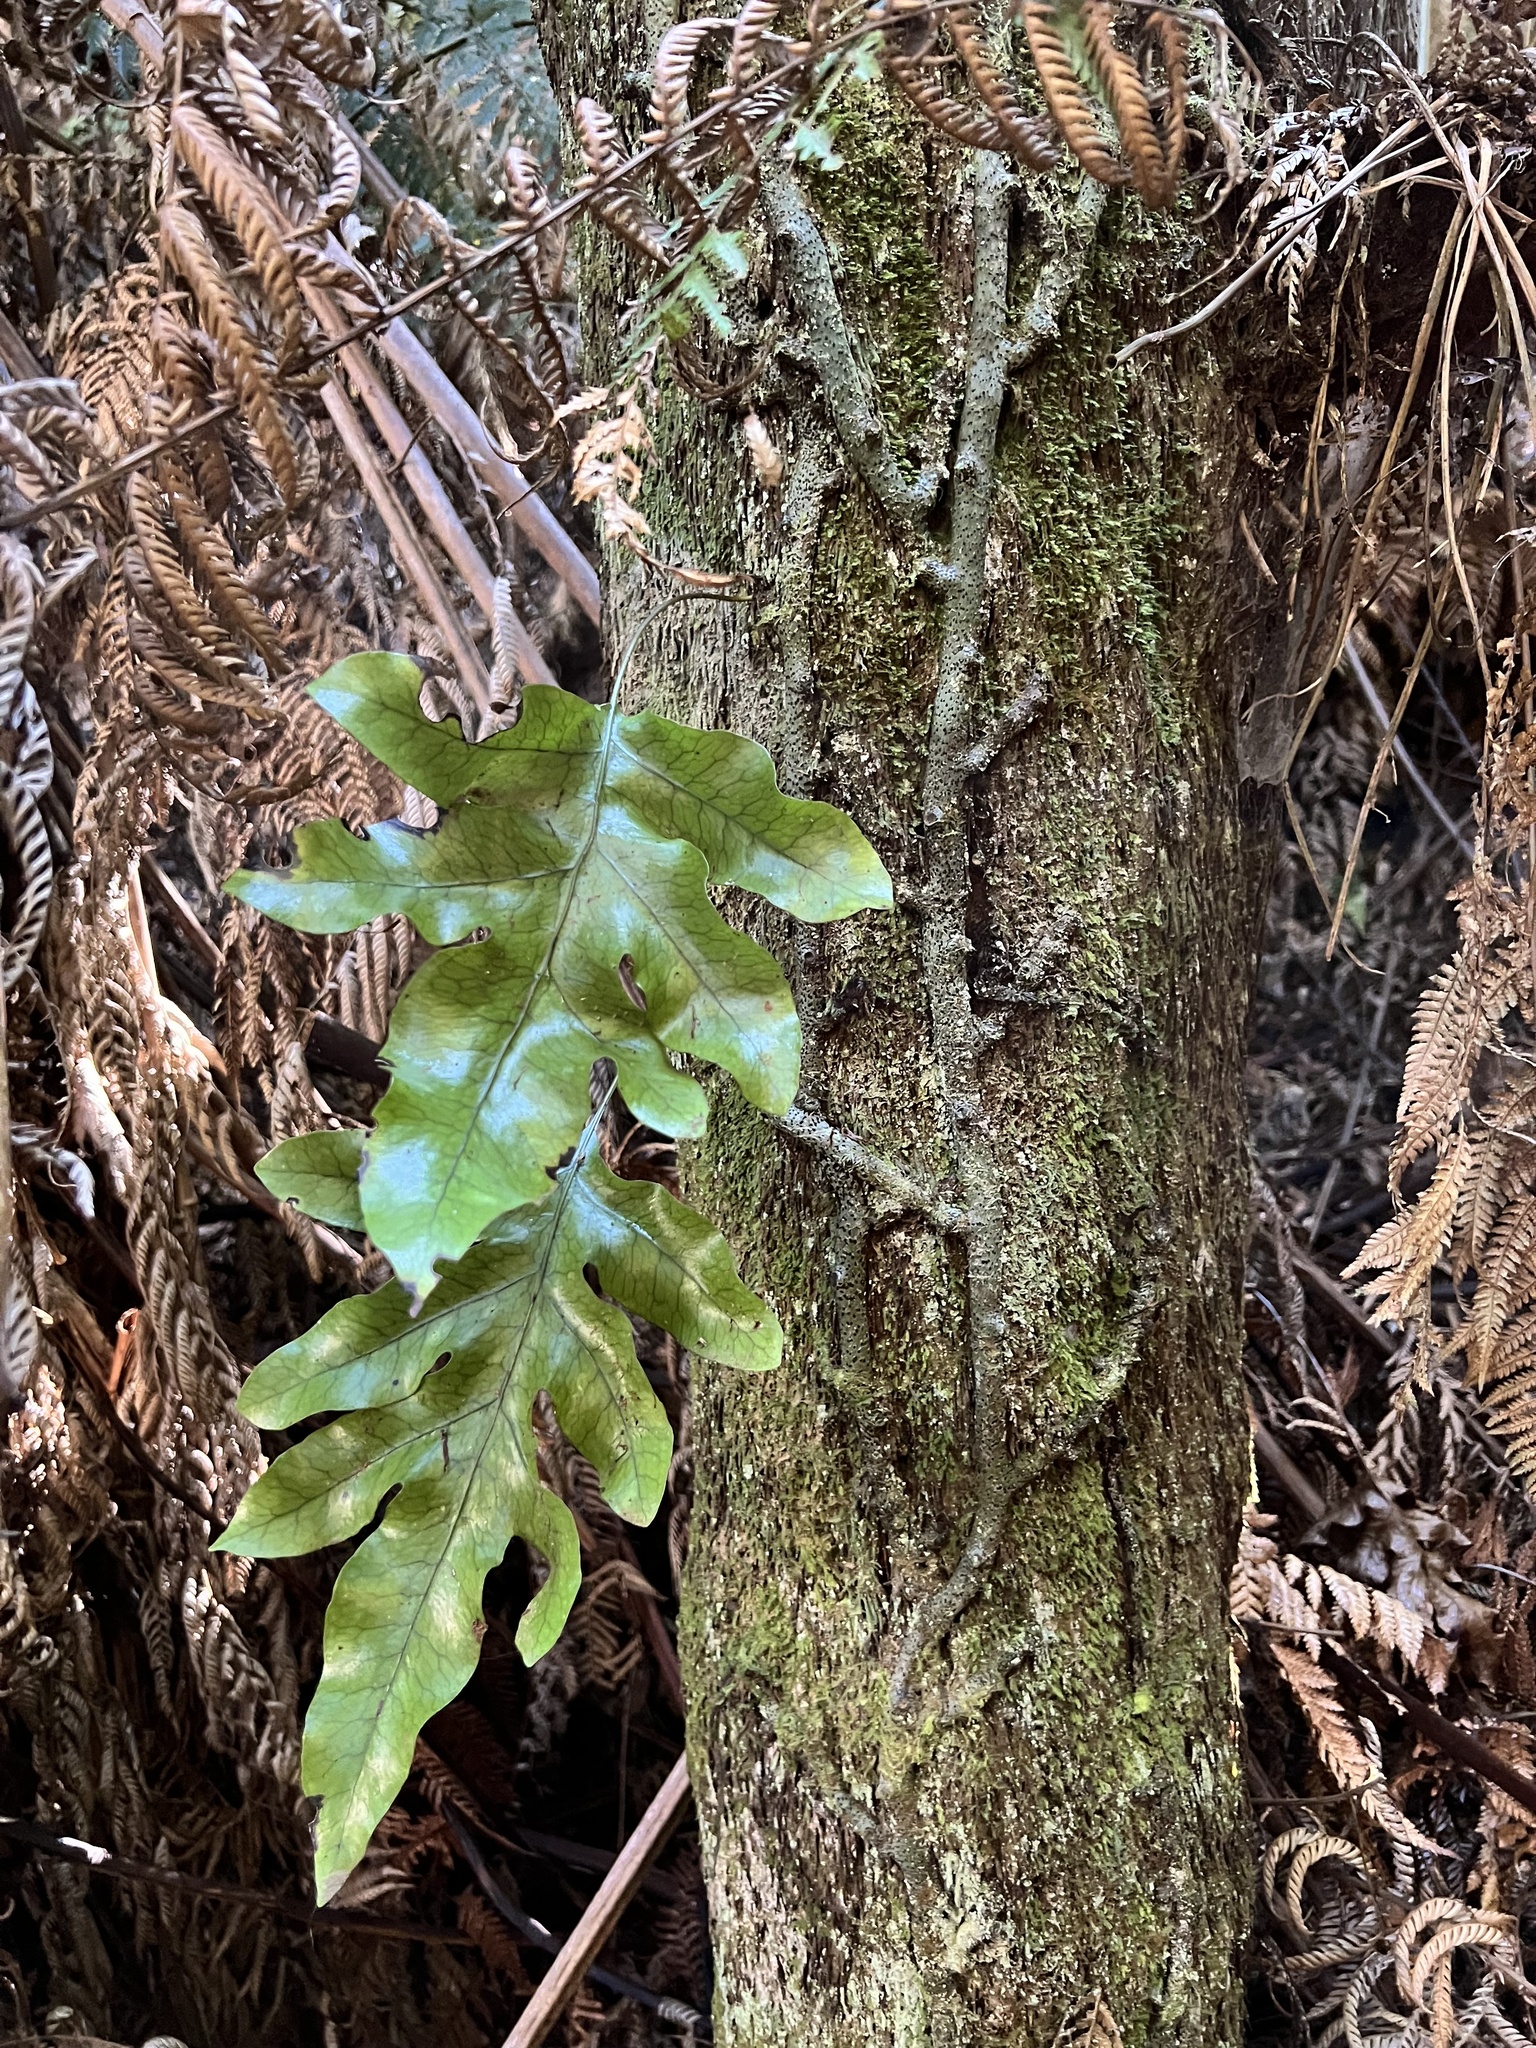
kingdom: Plantae
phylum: Tracheophyta
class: Polypodiopsida
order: Polypodiales
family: Polypodiaceae
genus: Lecanopteris
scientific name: Lecanopteris pustulata
